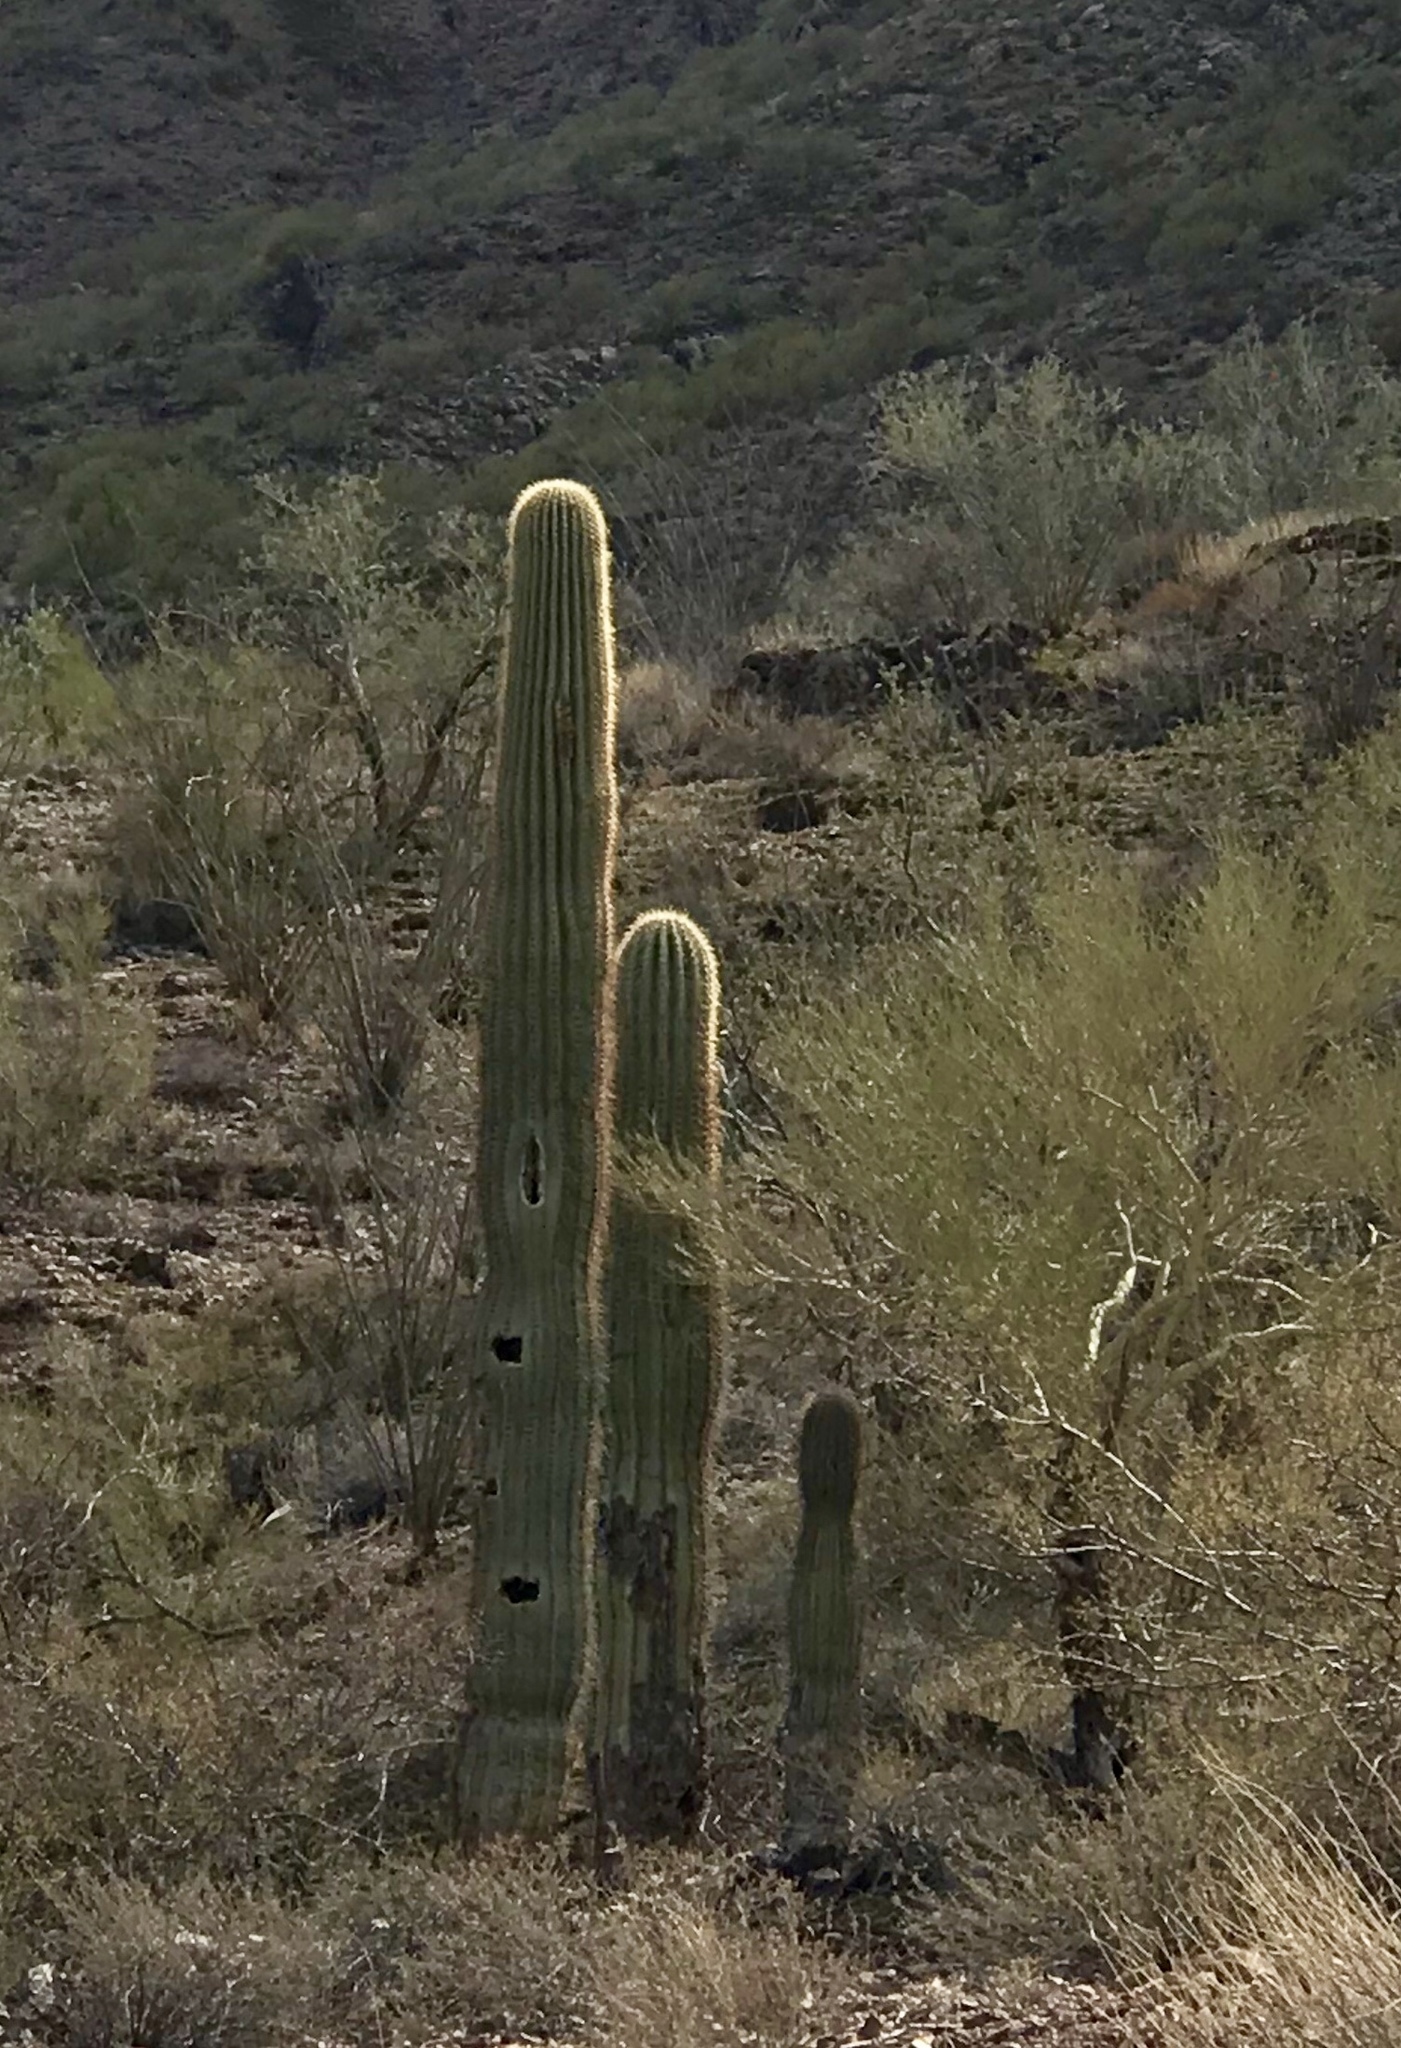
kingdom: Plantae
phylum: Tracheophyta
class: Magnoliopsida
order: Caryophyllales
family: Cactaceae
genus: Carnegiea
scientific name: Carnegiea gigantea
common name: Saguaro
